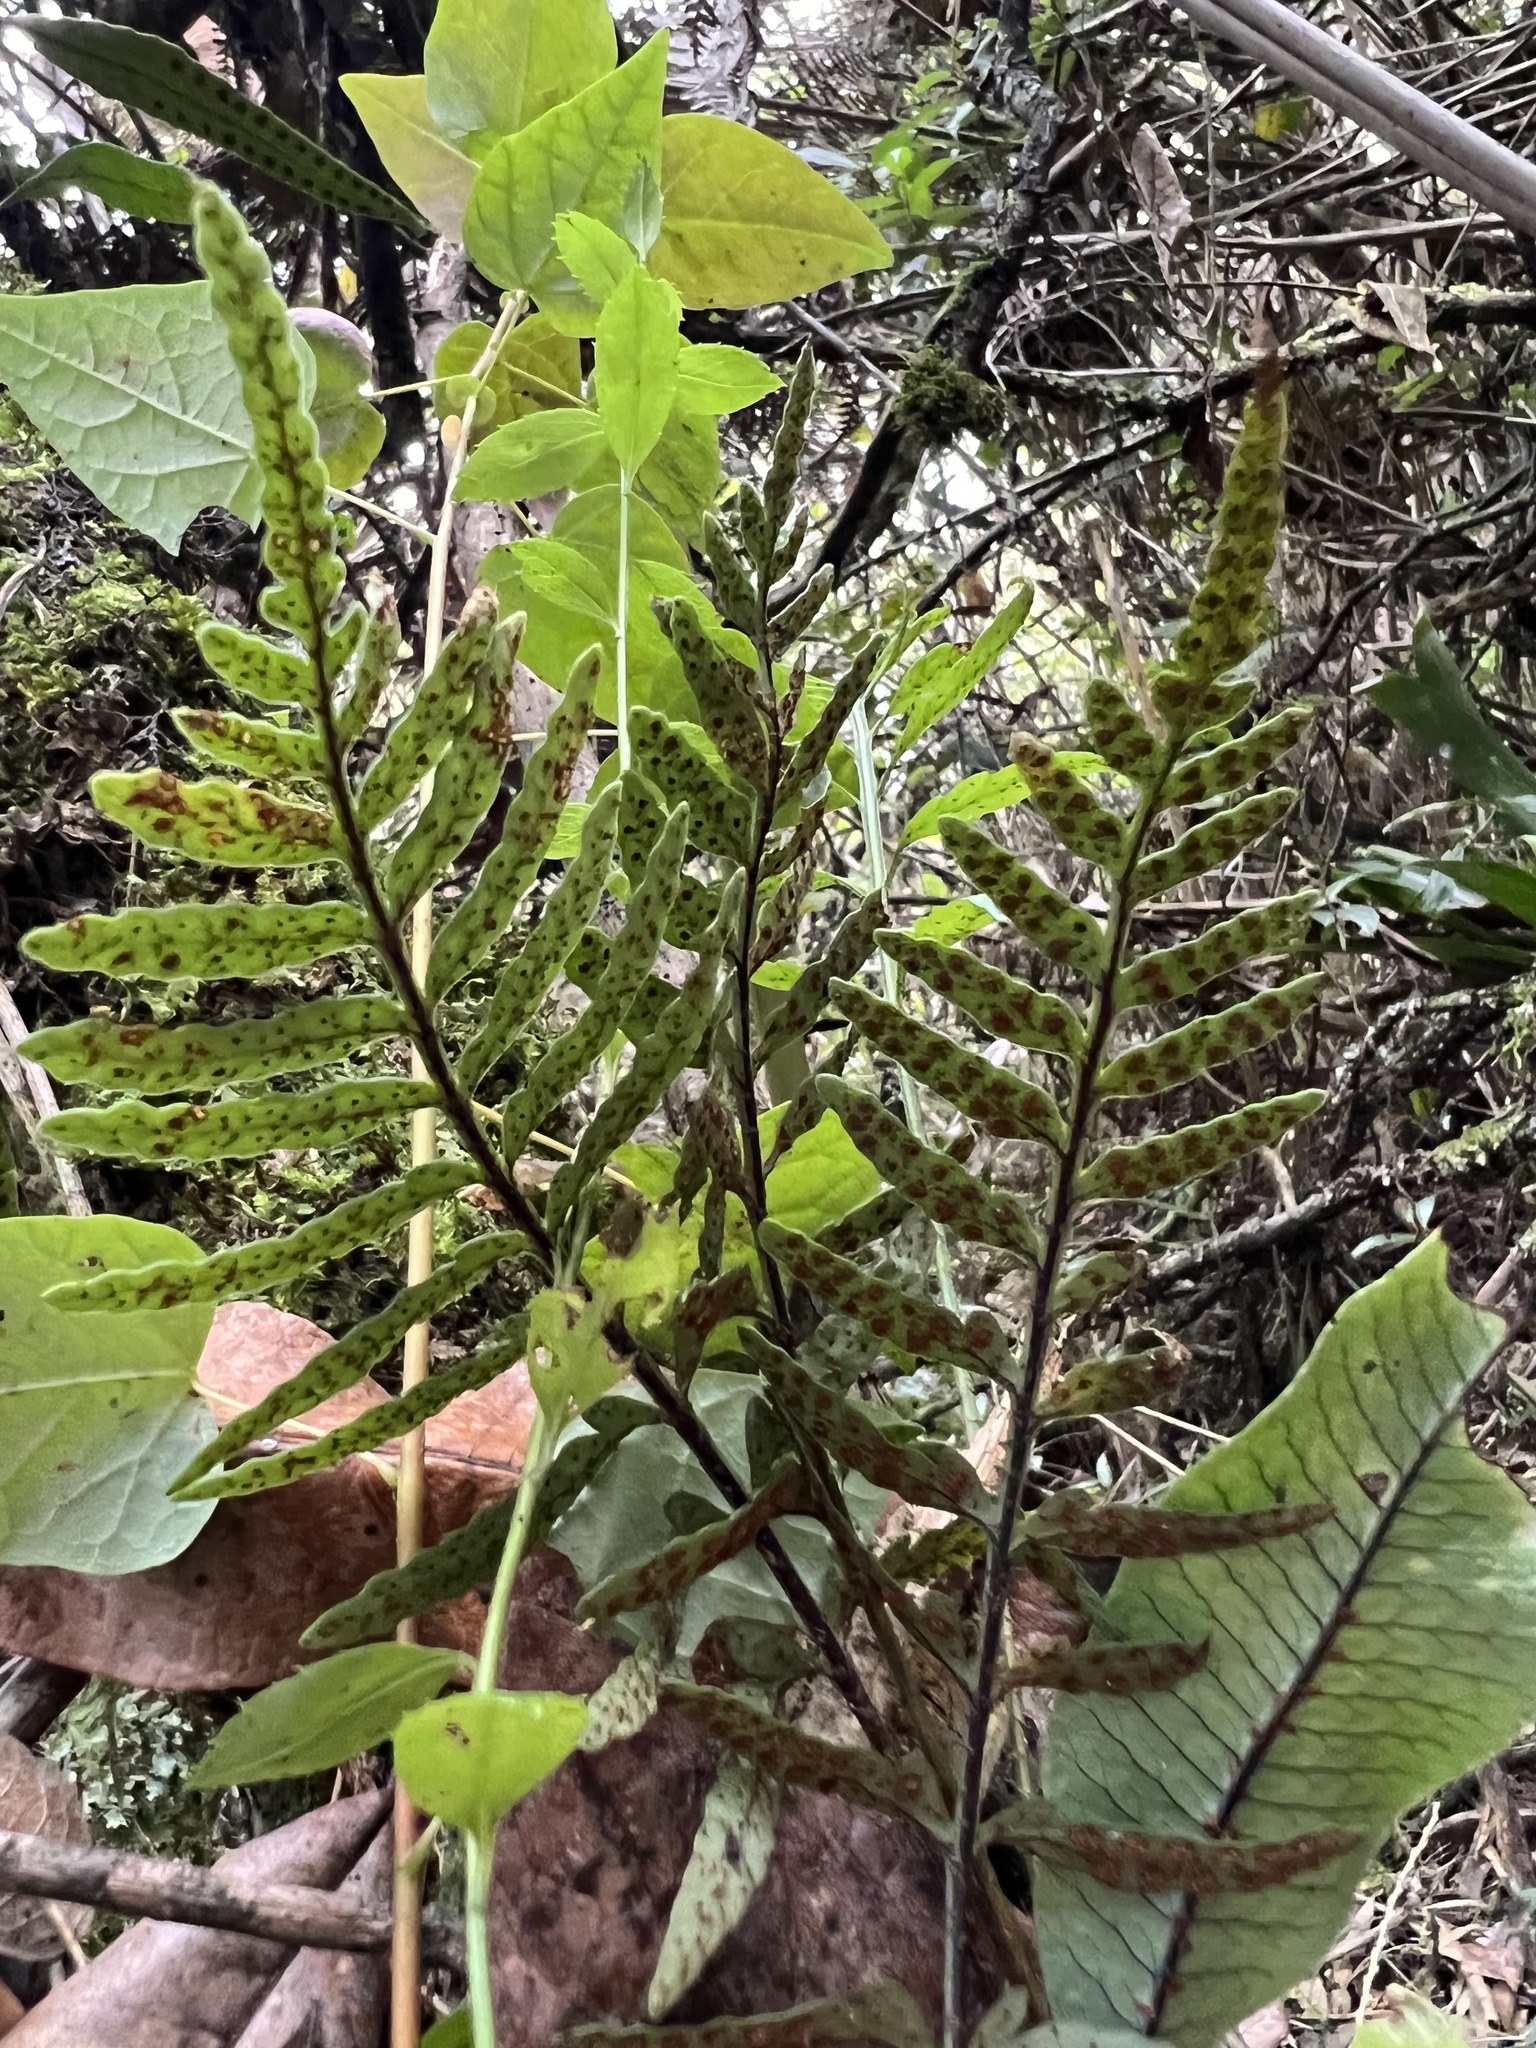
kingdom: Plantae
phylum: Tracheophyta
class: Polypodiopsida
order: Polypodiales
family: Polypodiaceae
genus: Pleopeltis
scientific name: Pleopeltis murora
